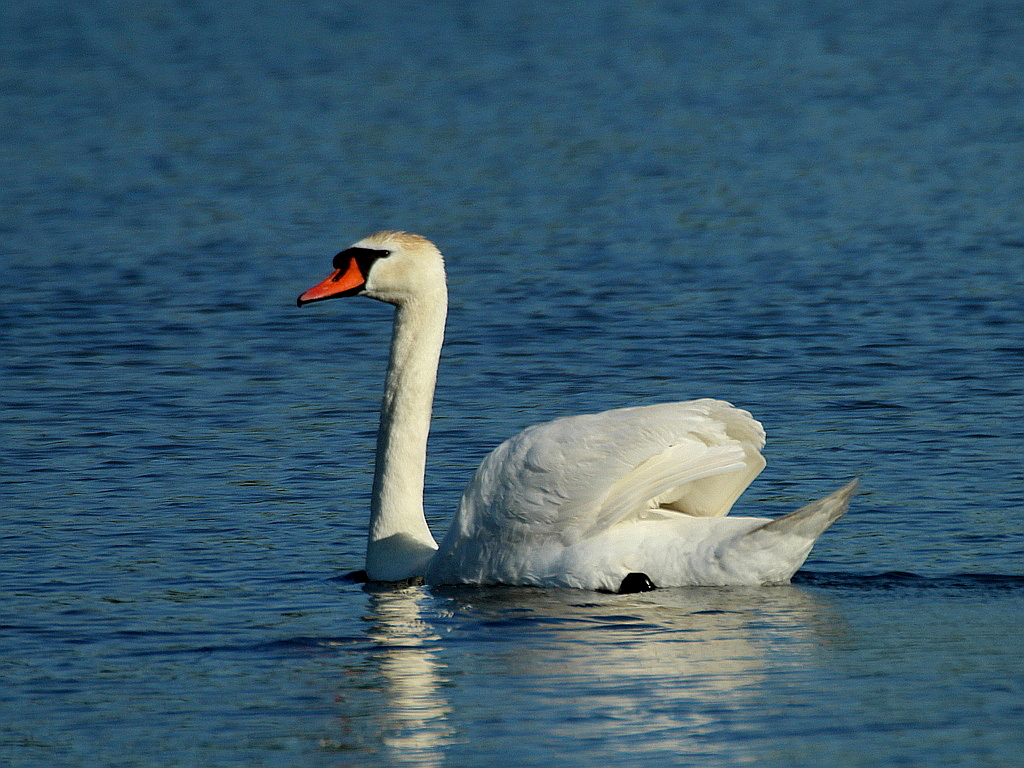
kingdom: Animalia
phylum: Chordata
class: Aves
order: Anseriformes
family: Anatidae
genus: Cygnus
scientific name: Cygnus olor
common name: Mute swan
